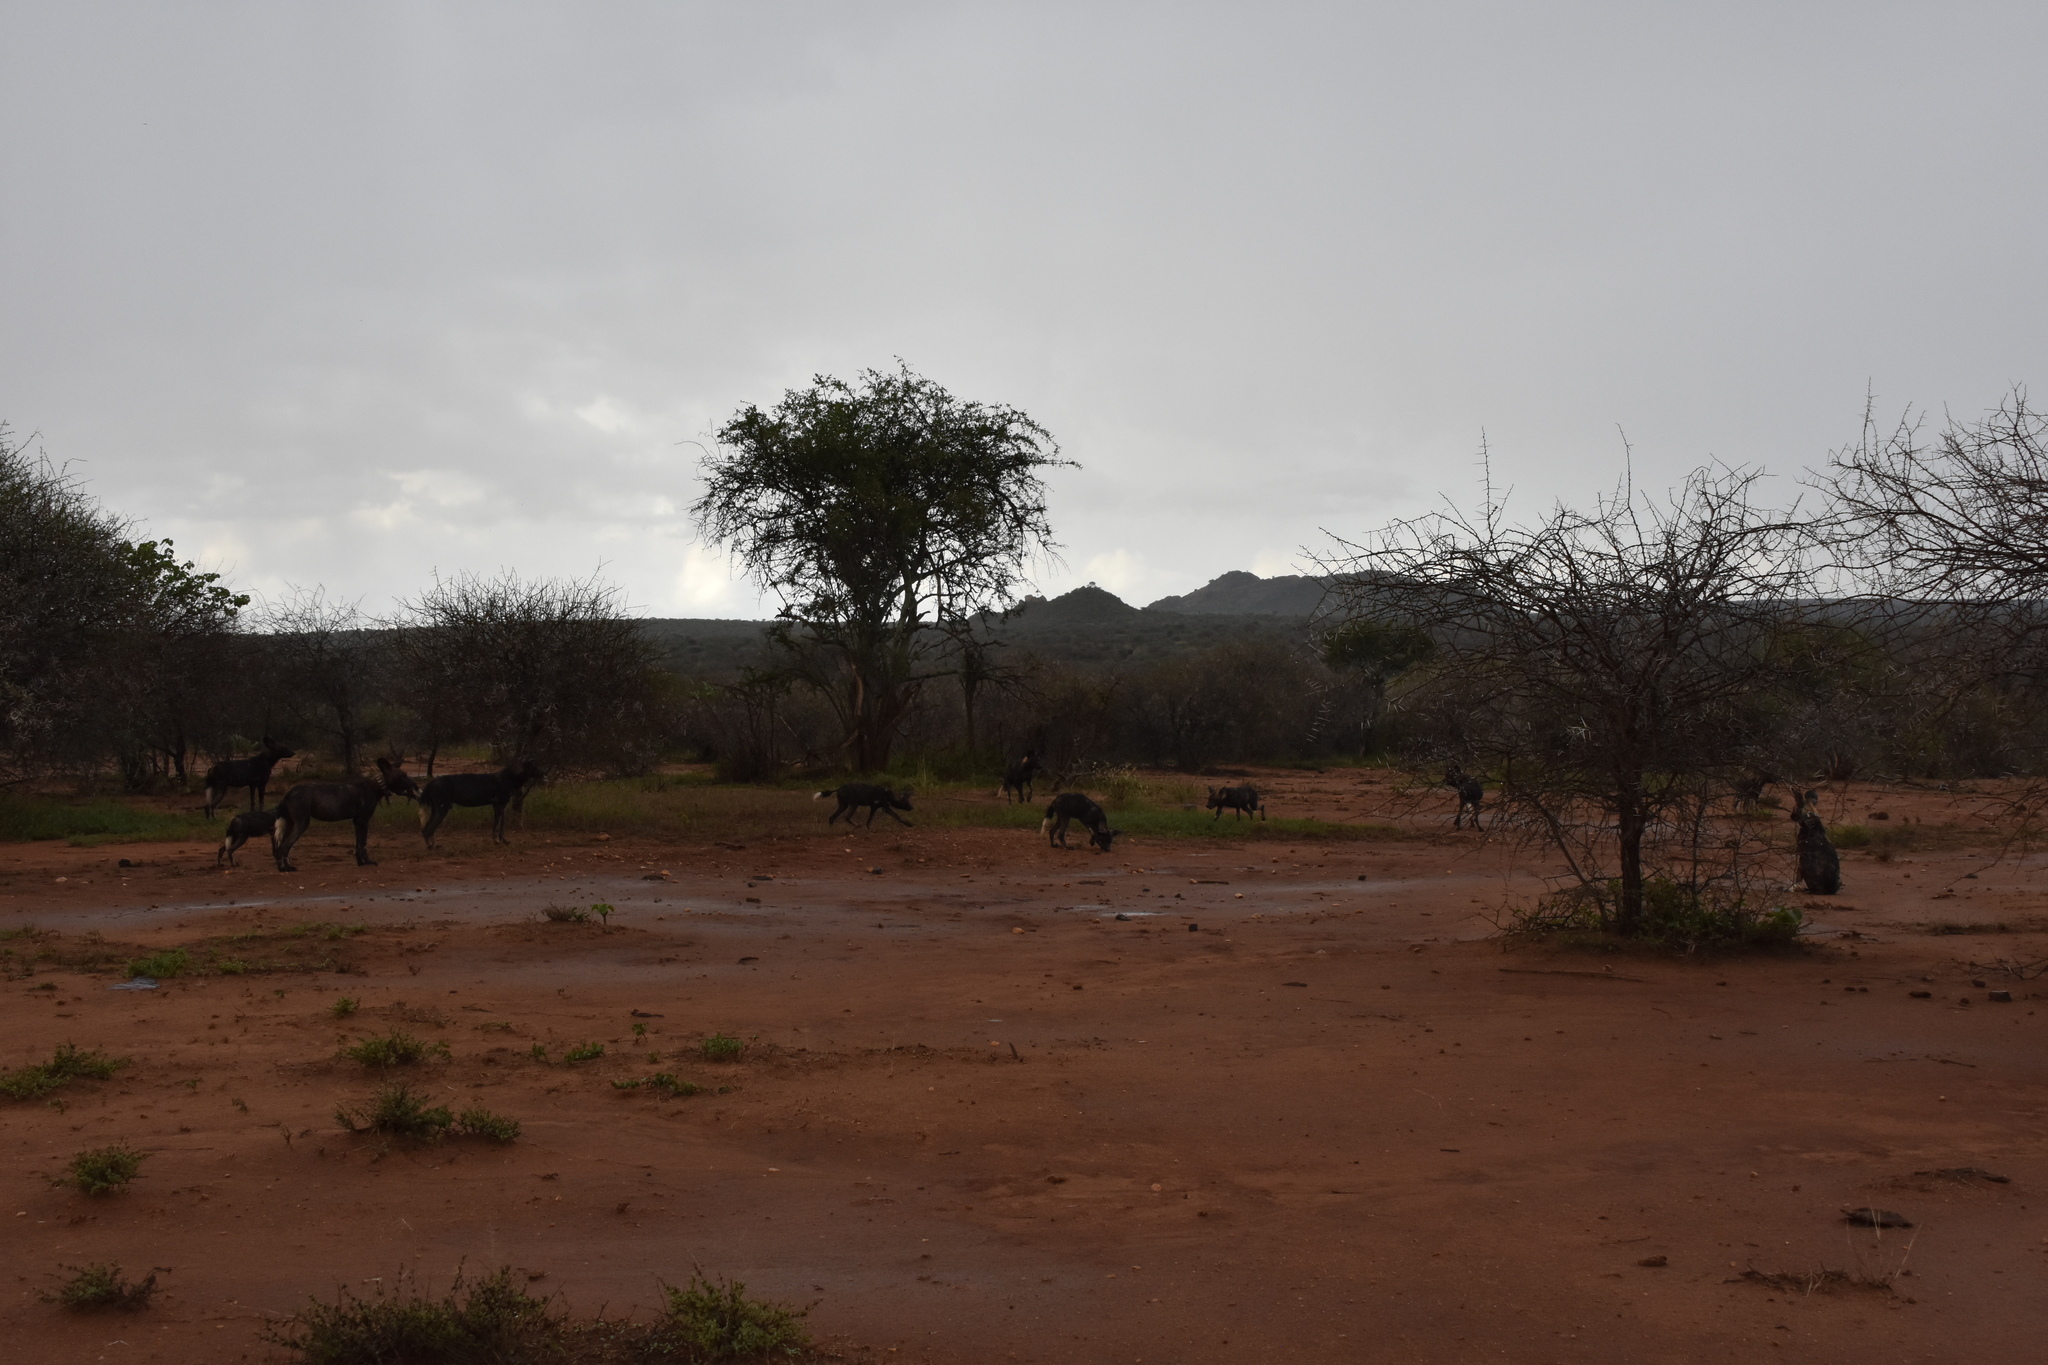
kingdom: Animalia
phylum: Chordata
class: Mammalia
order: Carnivora
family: Canidae
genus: Lycaon
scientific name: Lycaon pictus
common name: African wild dog
